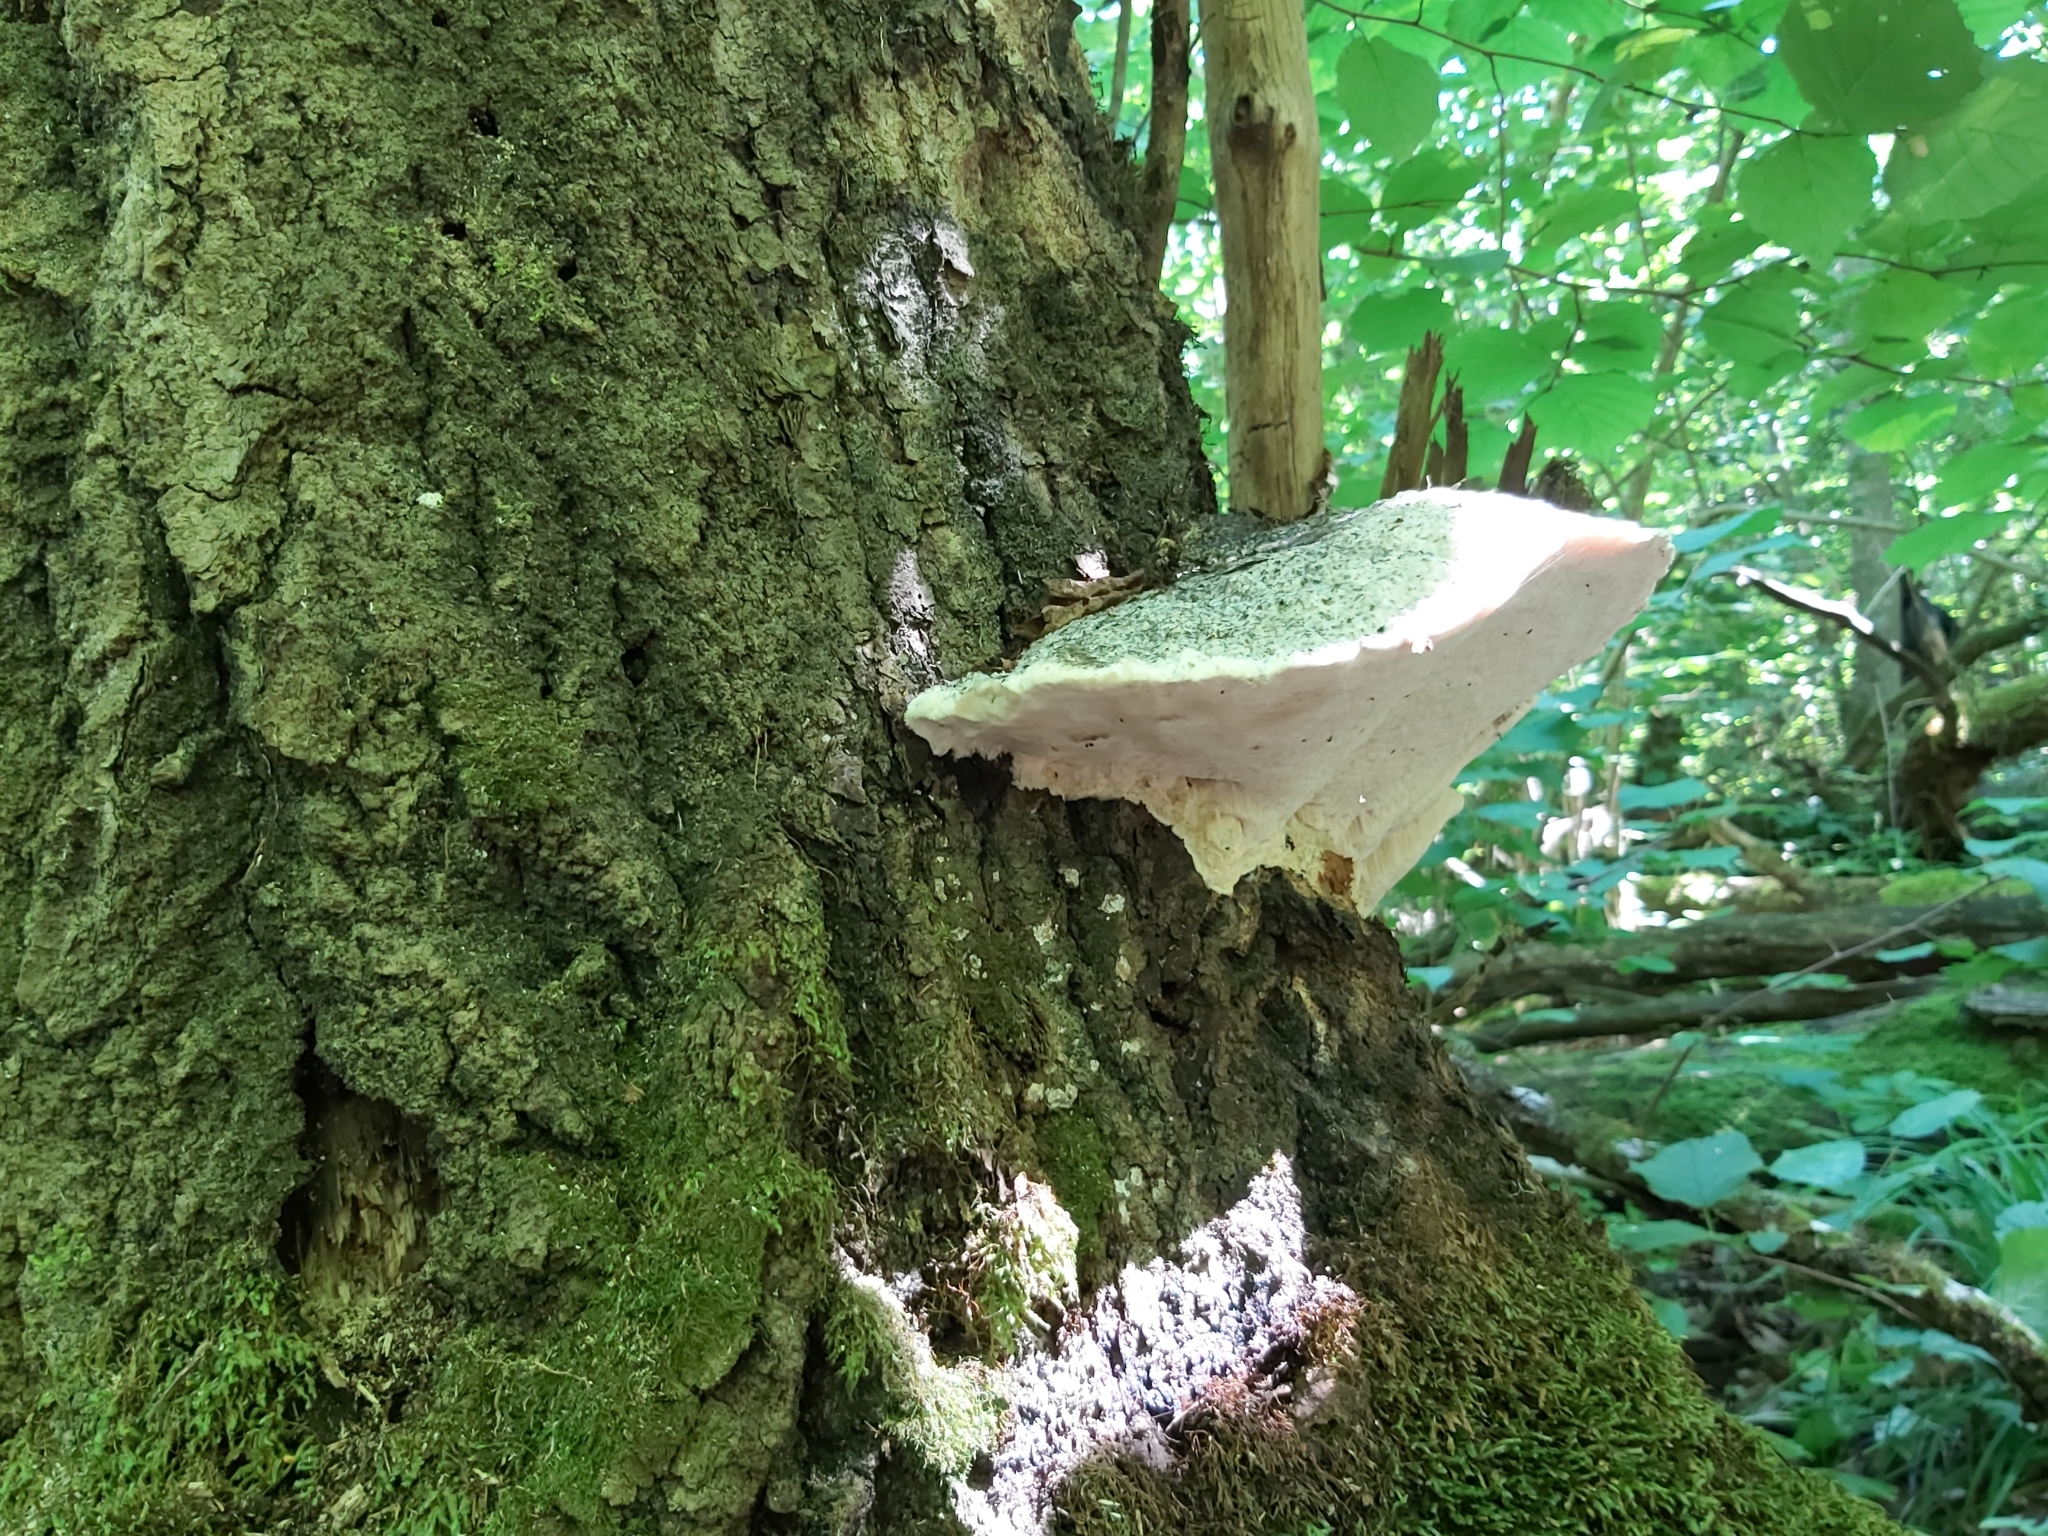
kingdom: Fungi
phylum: Basidiomycota
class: Agaricomycetes
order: Polyporales
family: Incrustoporiaceae
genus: Tyromyces
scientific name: Tyromyces chioneus
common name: White cheese polypore
